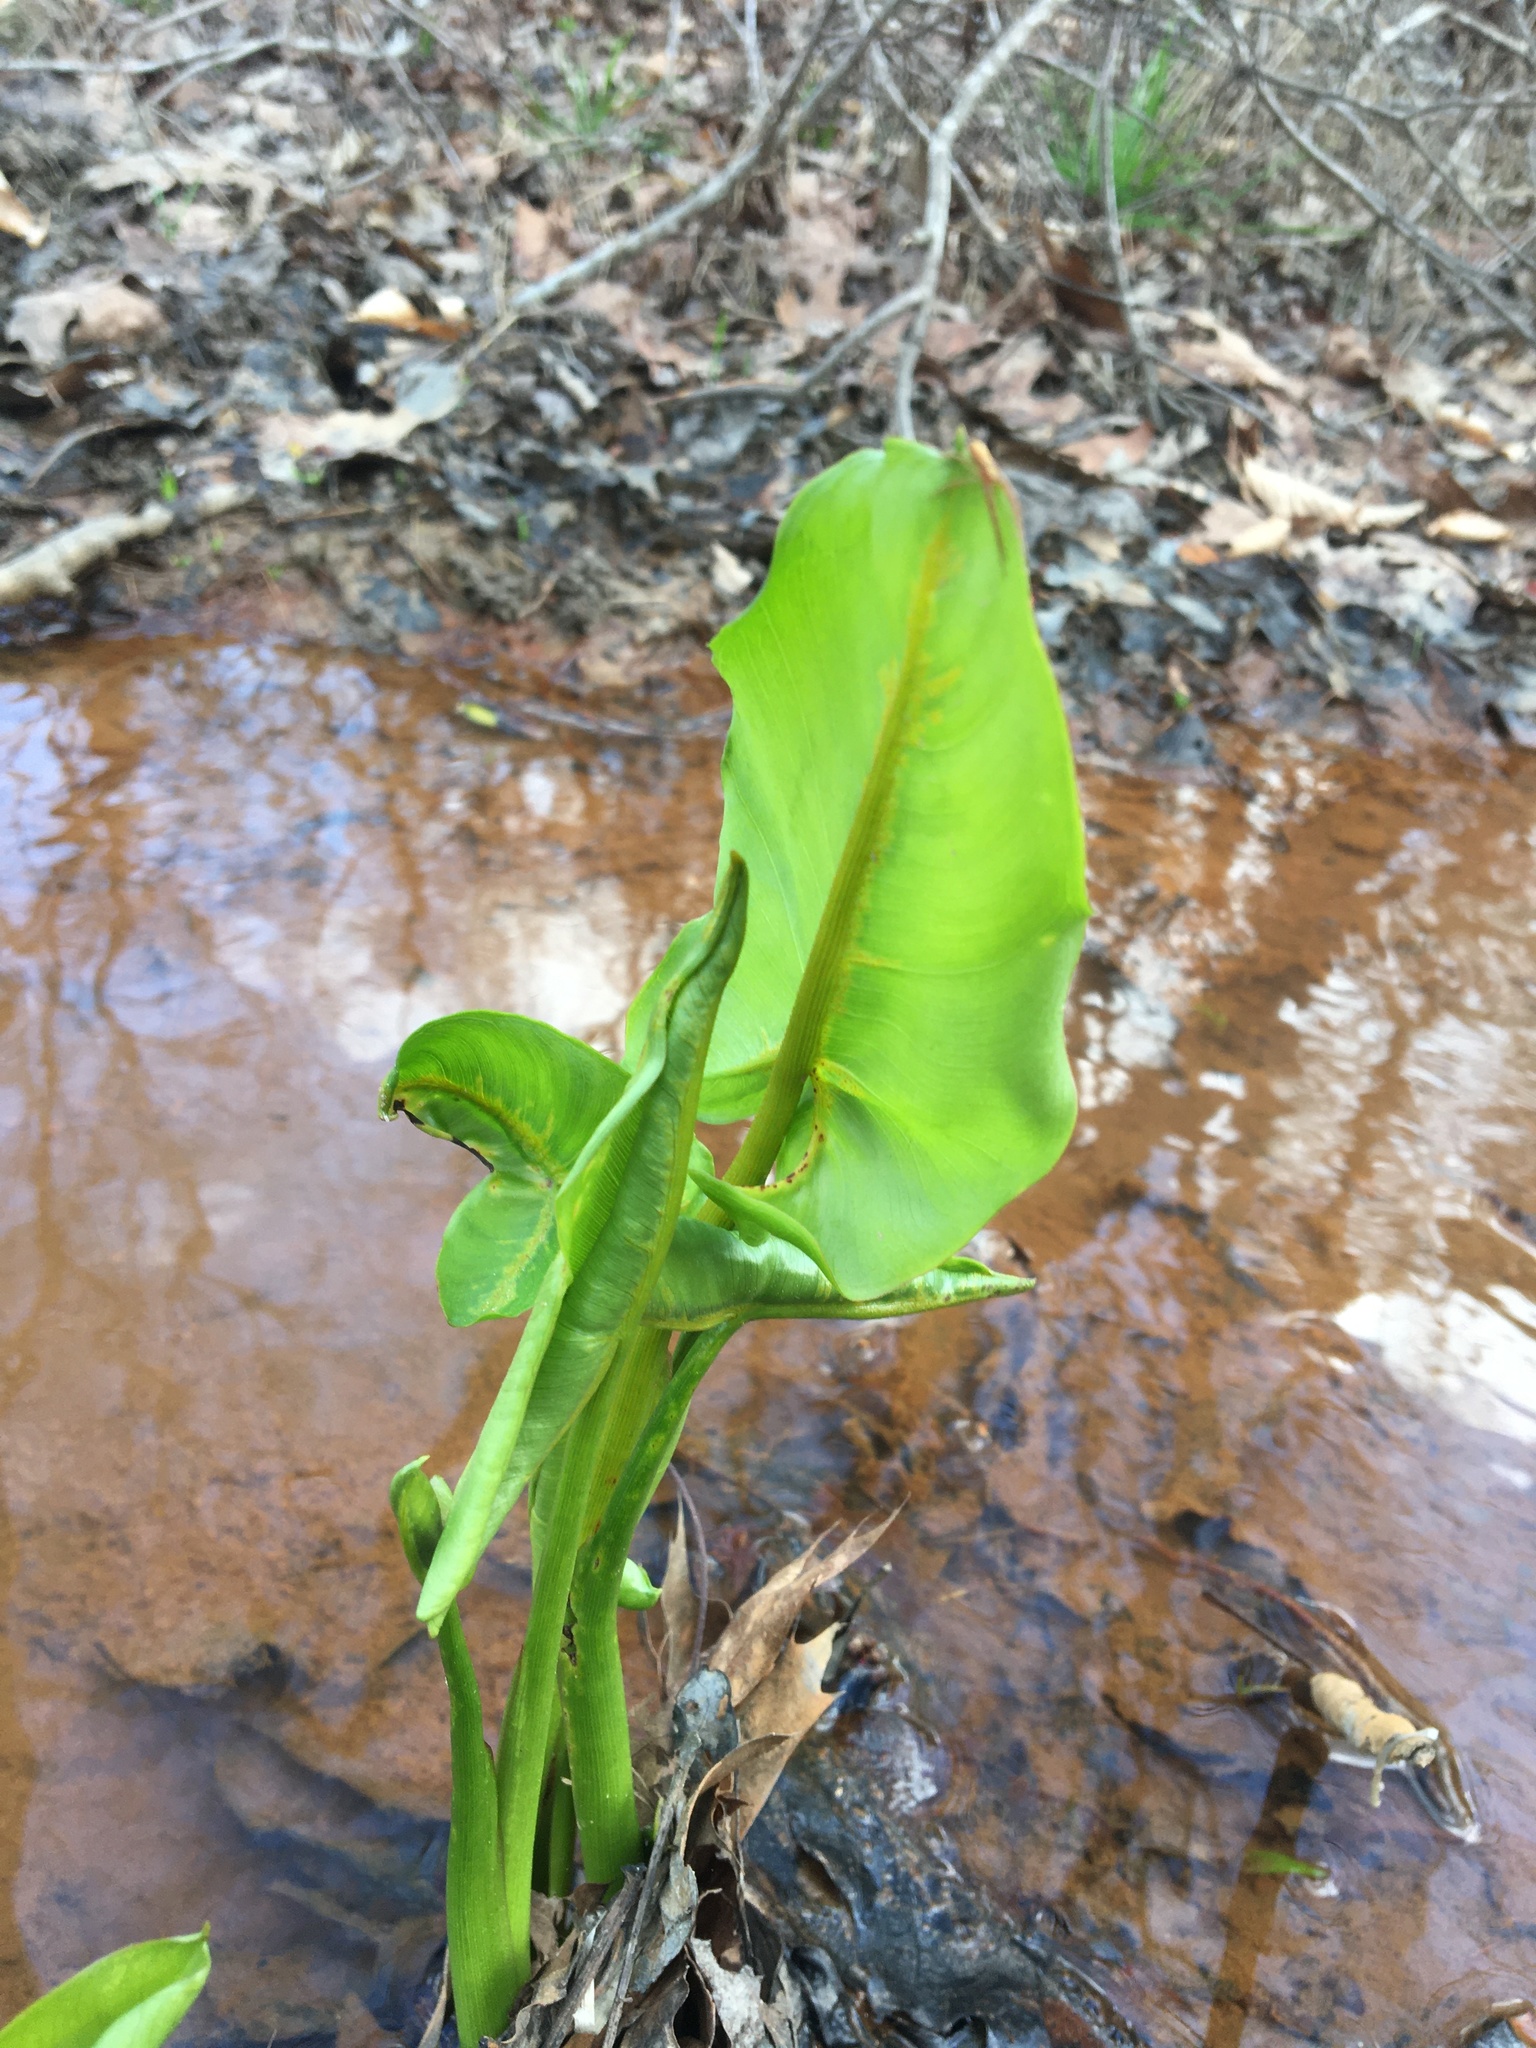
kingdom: Plantae
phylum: Tracheophyta
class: Liliopsida
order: Alismatales
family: Araceae
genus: Peltandra
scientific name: Peltandra virginica
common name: Arrow arum
